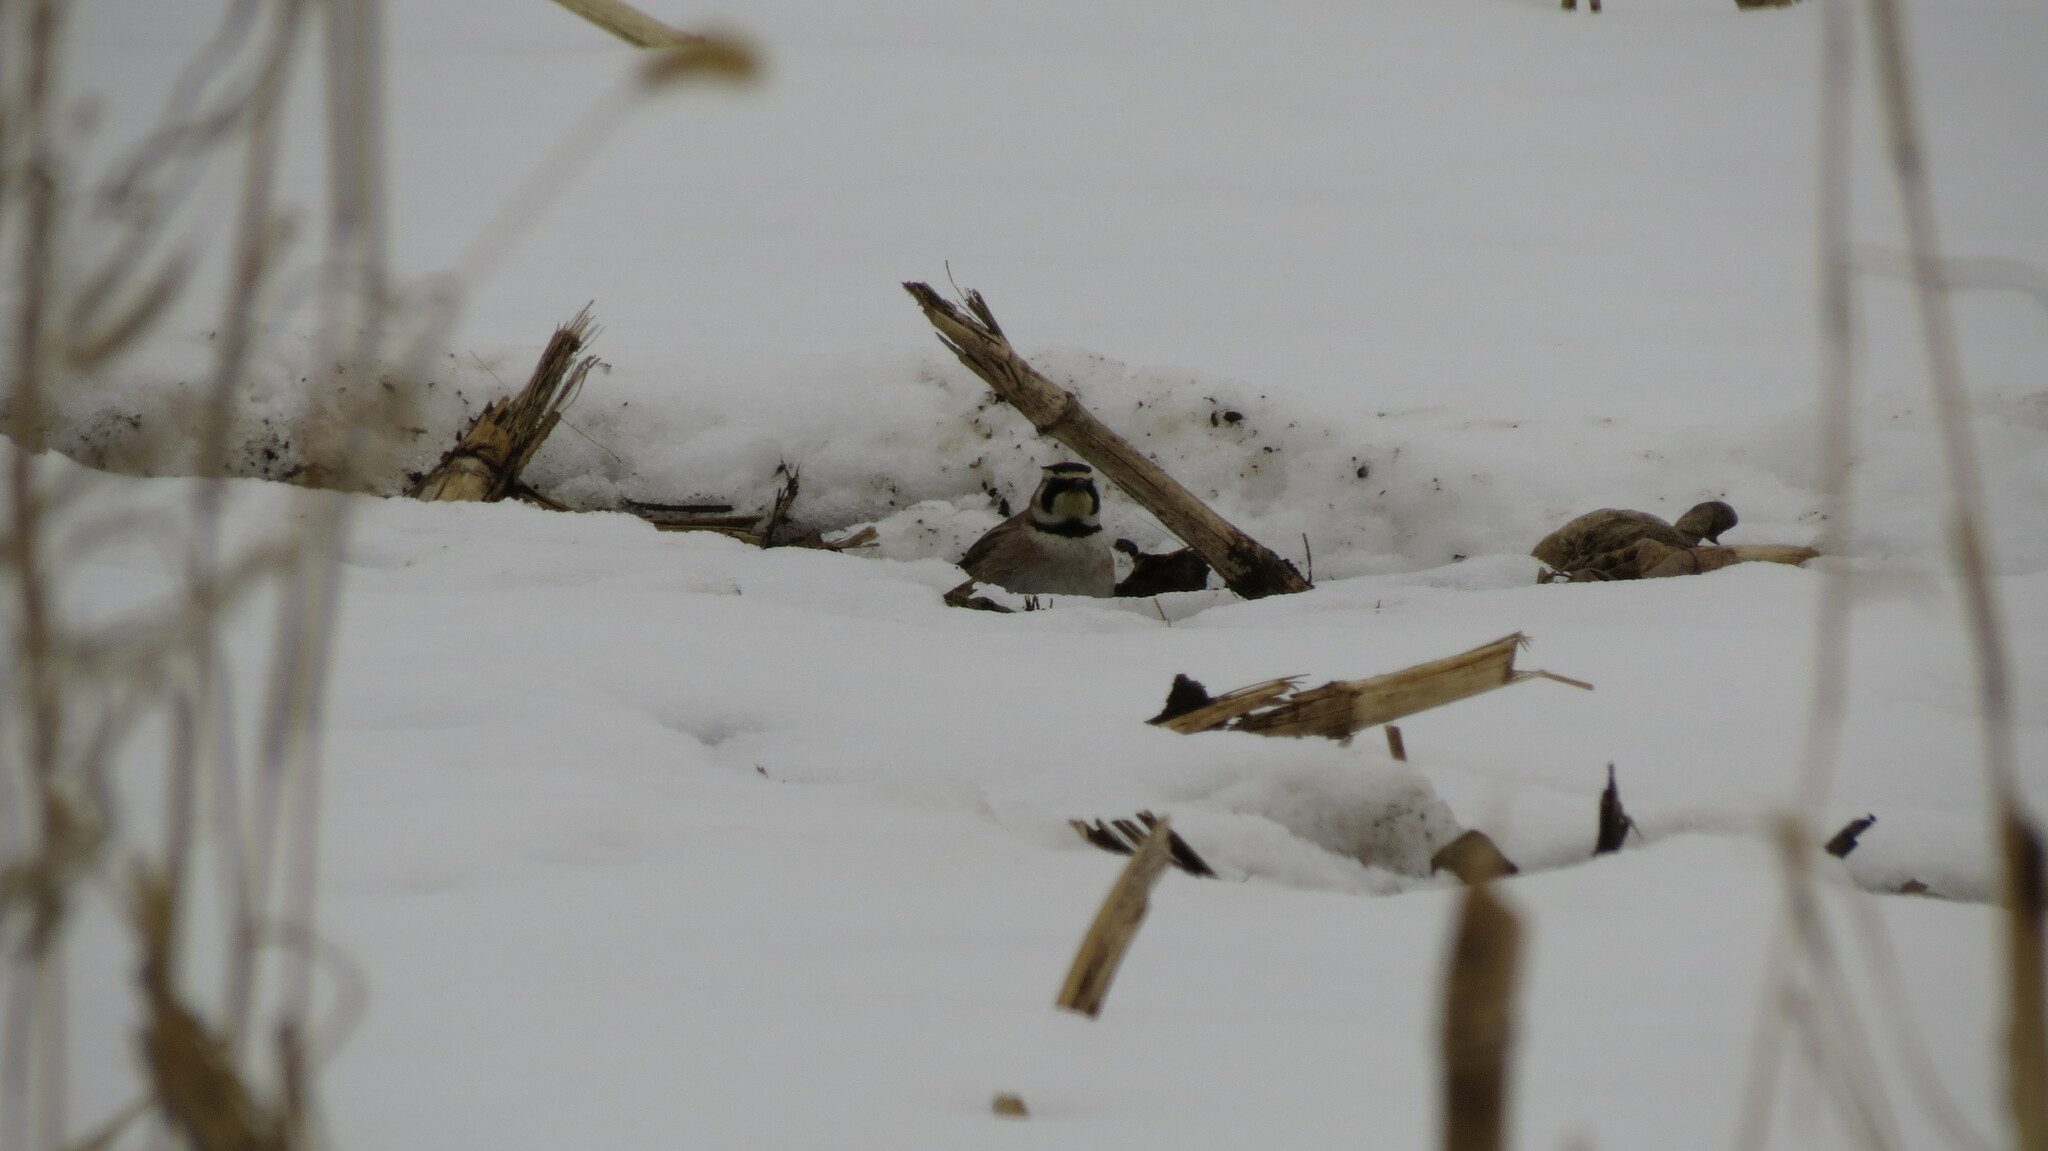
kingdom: Animalia
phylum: Chordata
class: Aves
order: Passeriformes
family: Alaudidae
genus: Eremophila
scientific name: Eremophila alpestris
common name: Horned lark
